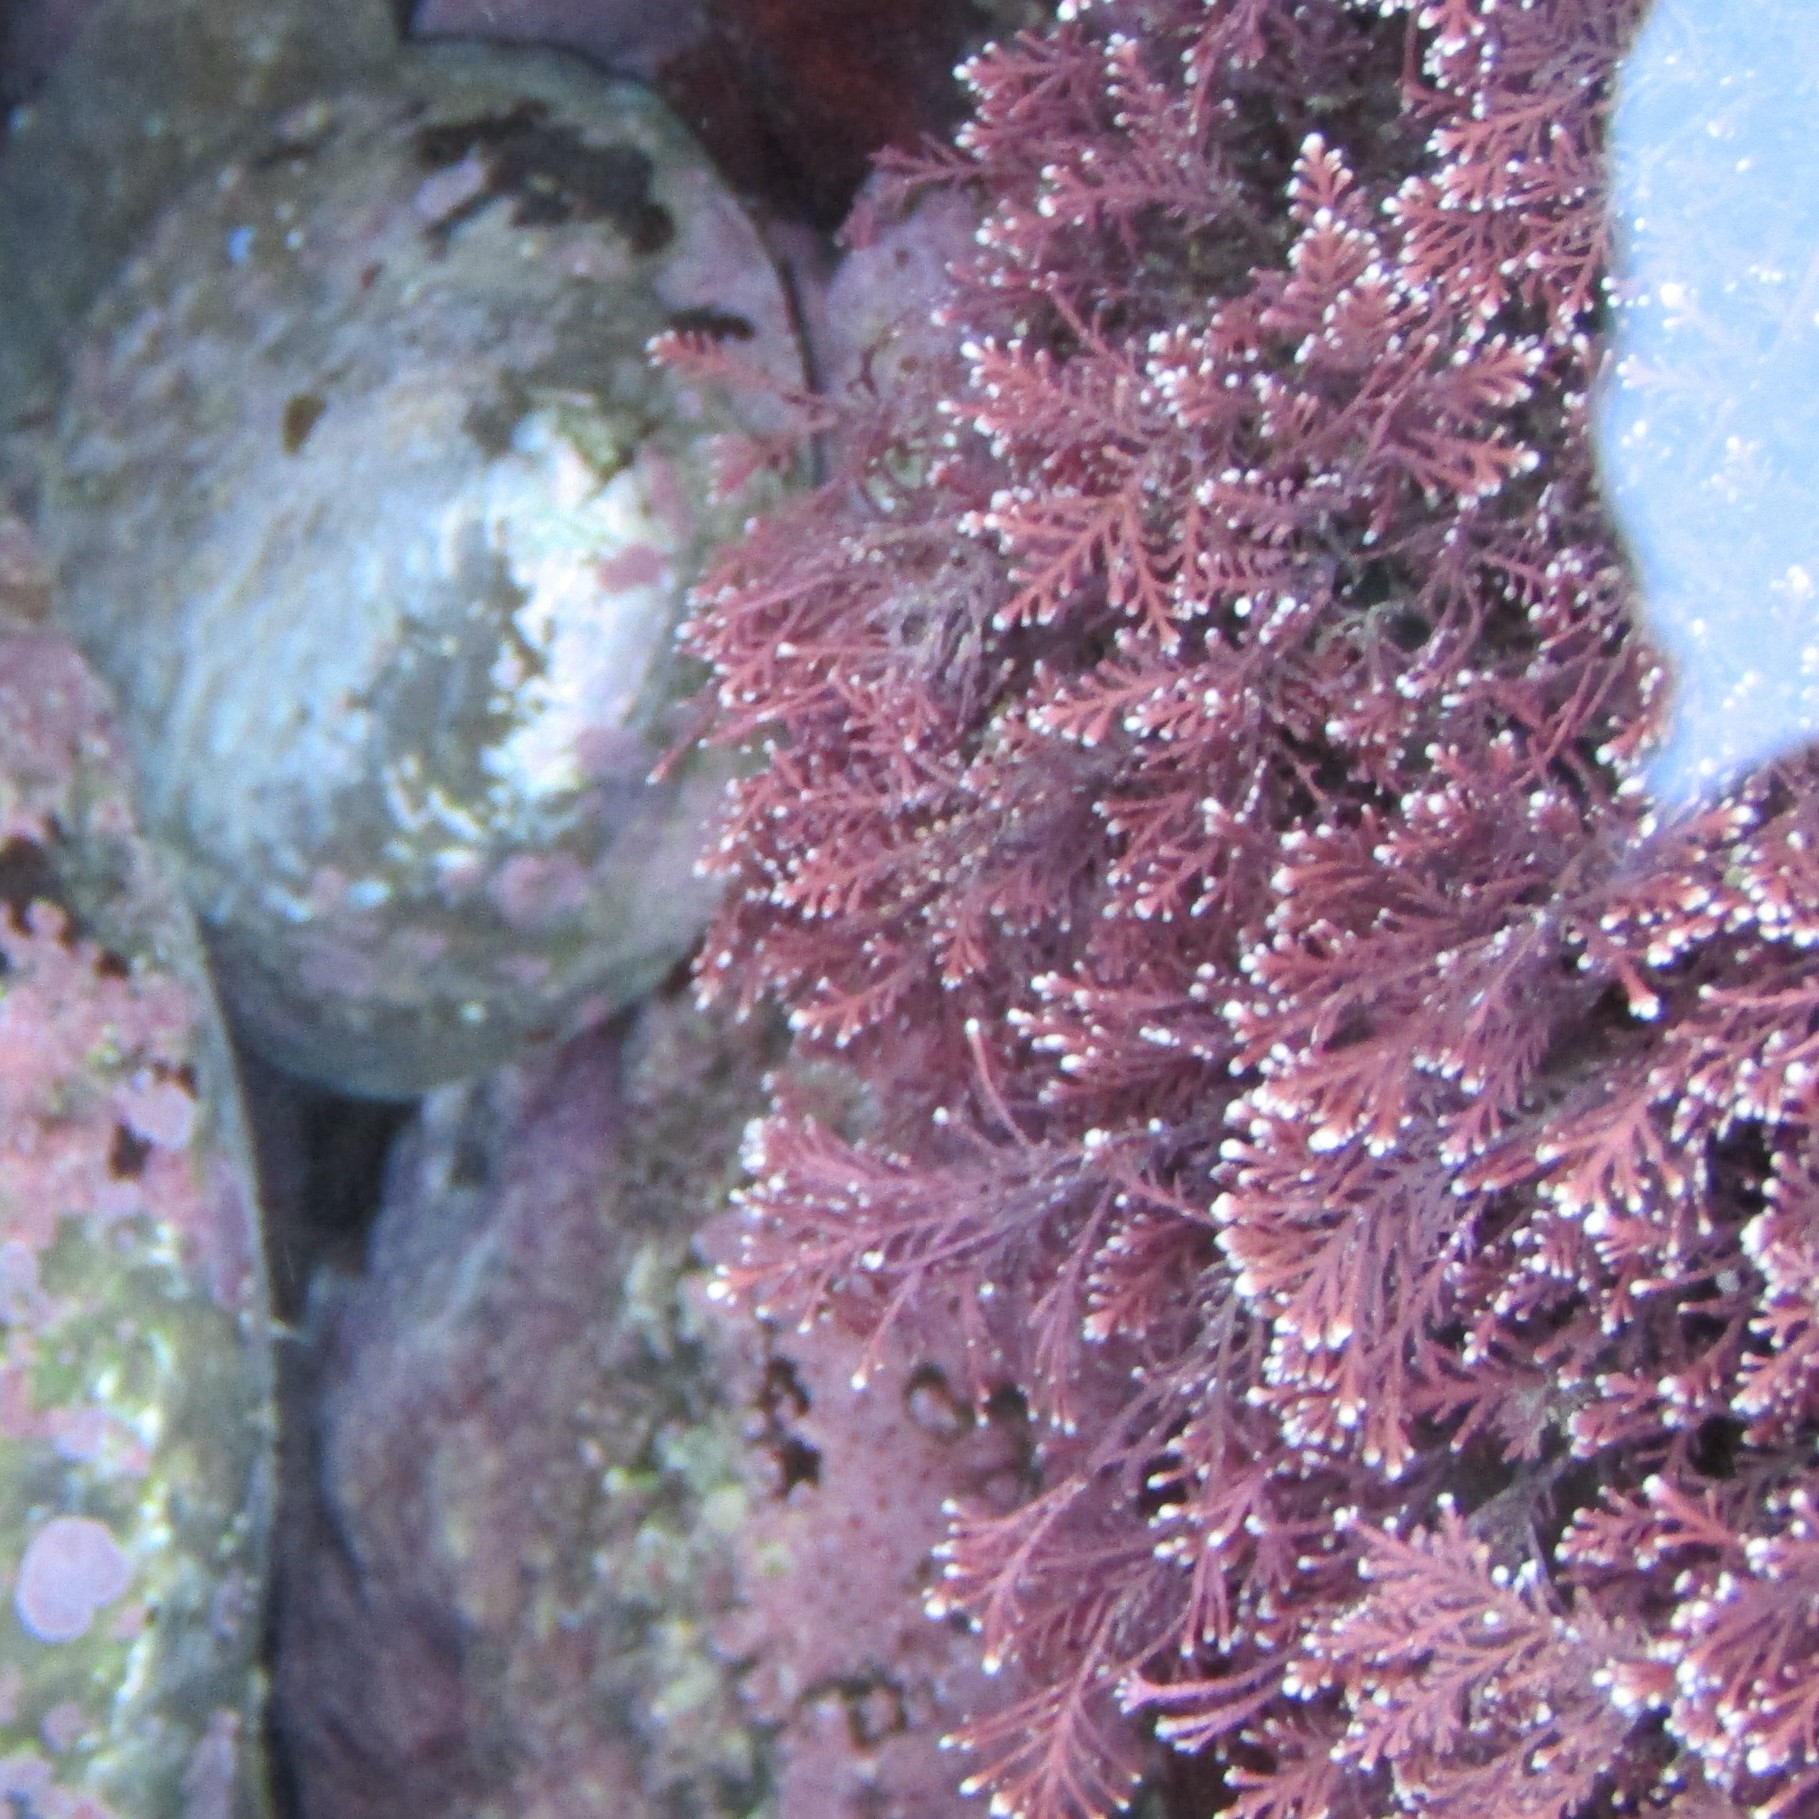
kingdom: Plantae
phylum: Rhodophyta
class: Florideophyceae
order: Corallinales
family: Corallinaceae
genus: Corallina
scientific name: Corallina officinalis
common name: Coral weed
